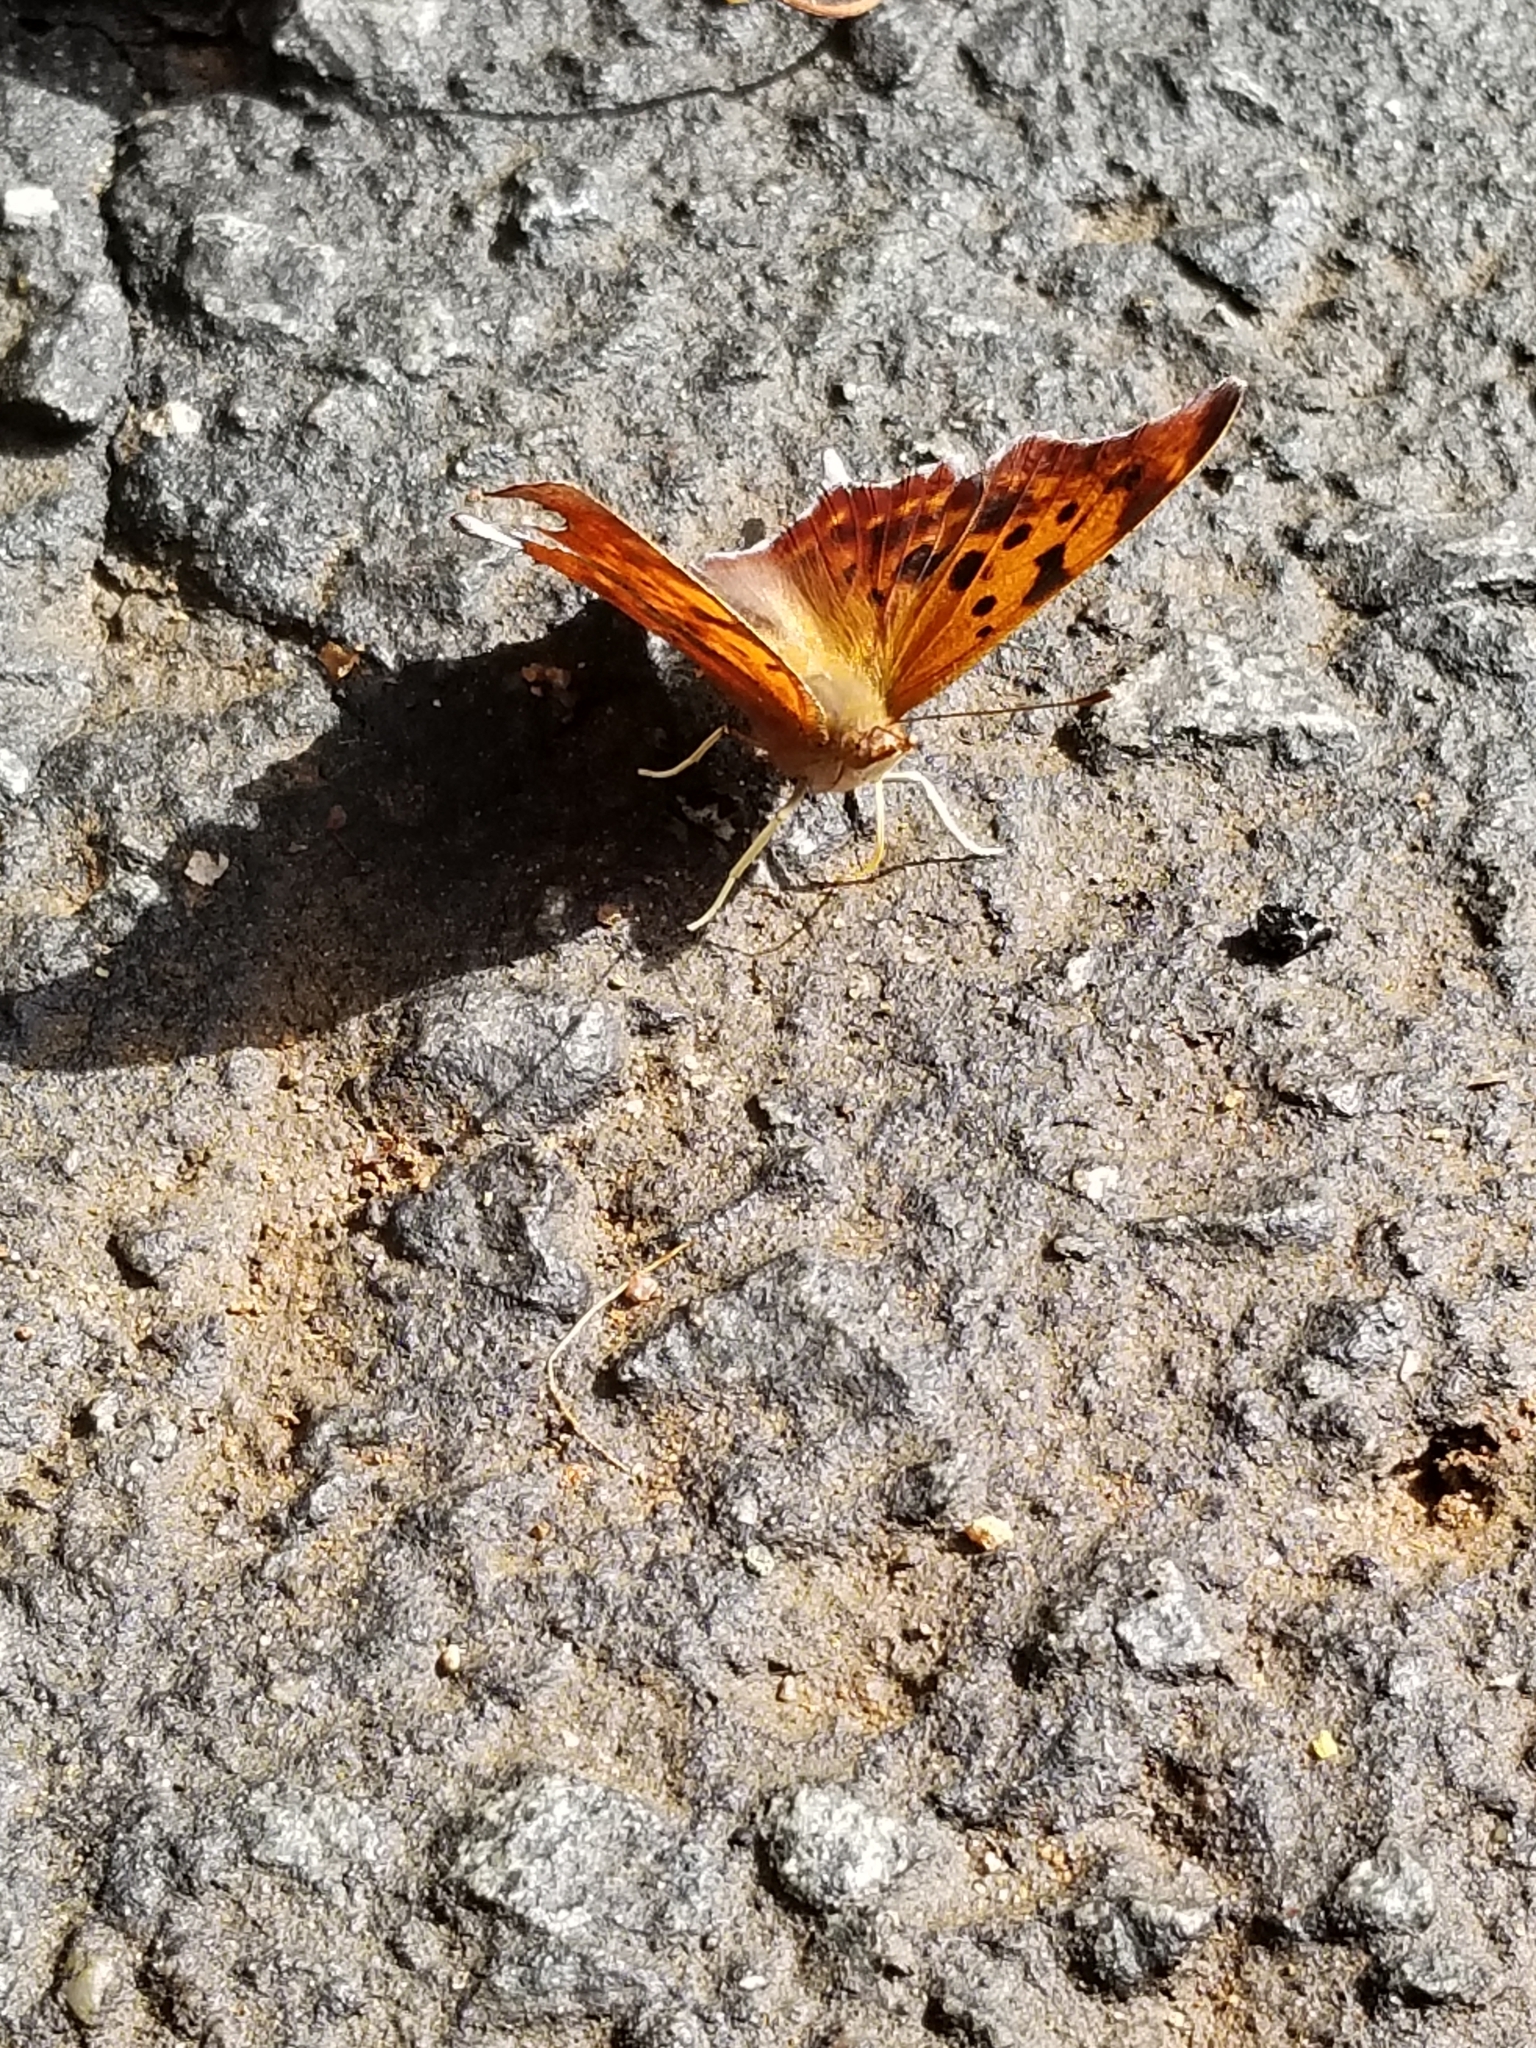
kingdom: Animalia
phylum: Arthropoda
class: Insecta
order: Lepidoptera
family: Nymphalidae
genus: Polygonia
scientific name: Polygonia interrogationis
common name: Question mark
